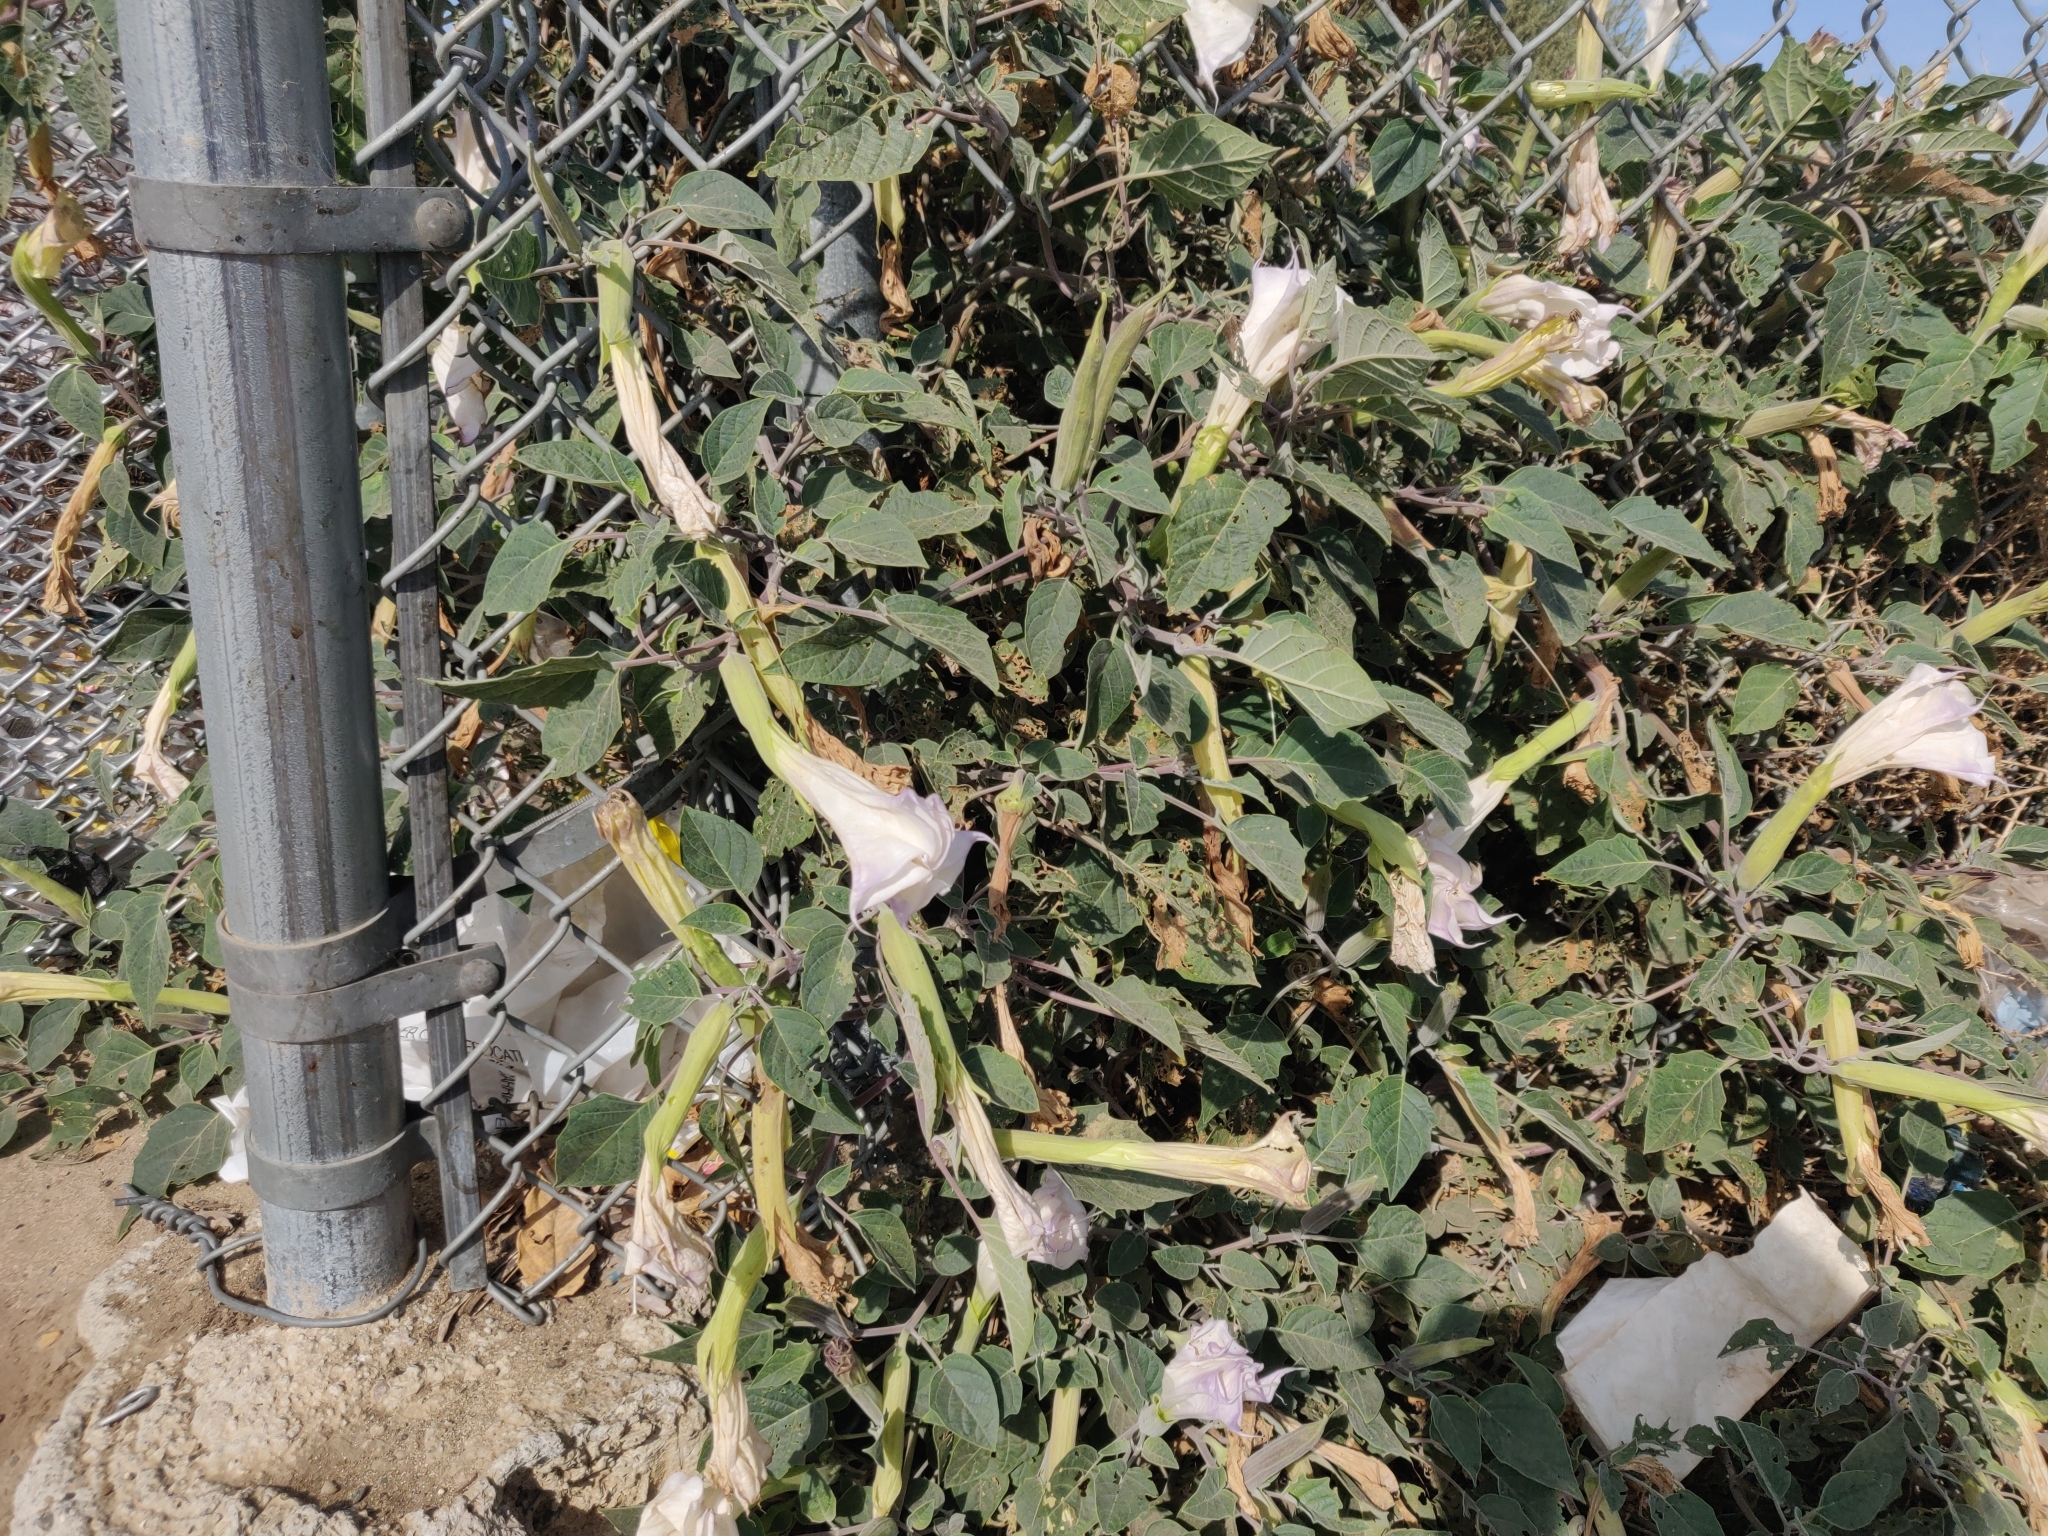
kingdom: Plantae
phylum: Tracheophyta
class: Magnoliopsida
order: Solanales
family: Solanaceae
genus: Datura
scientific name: Datura wrightii
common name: Sacred thorn-apple
